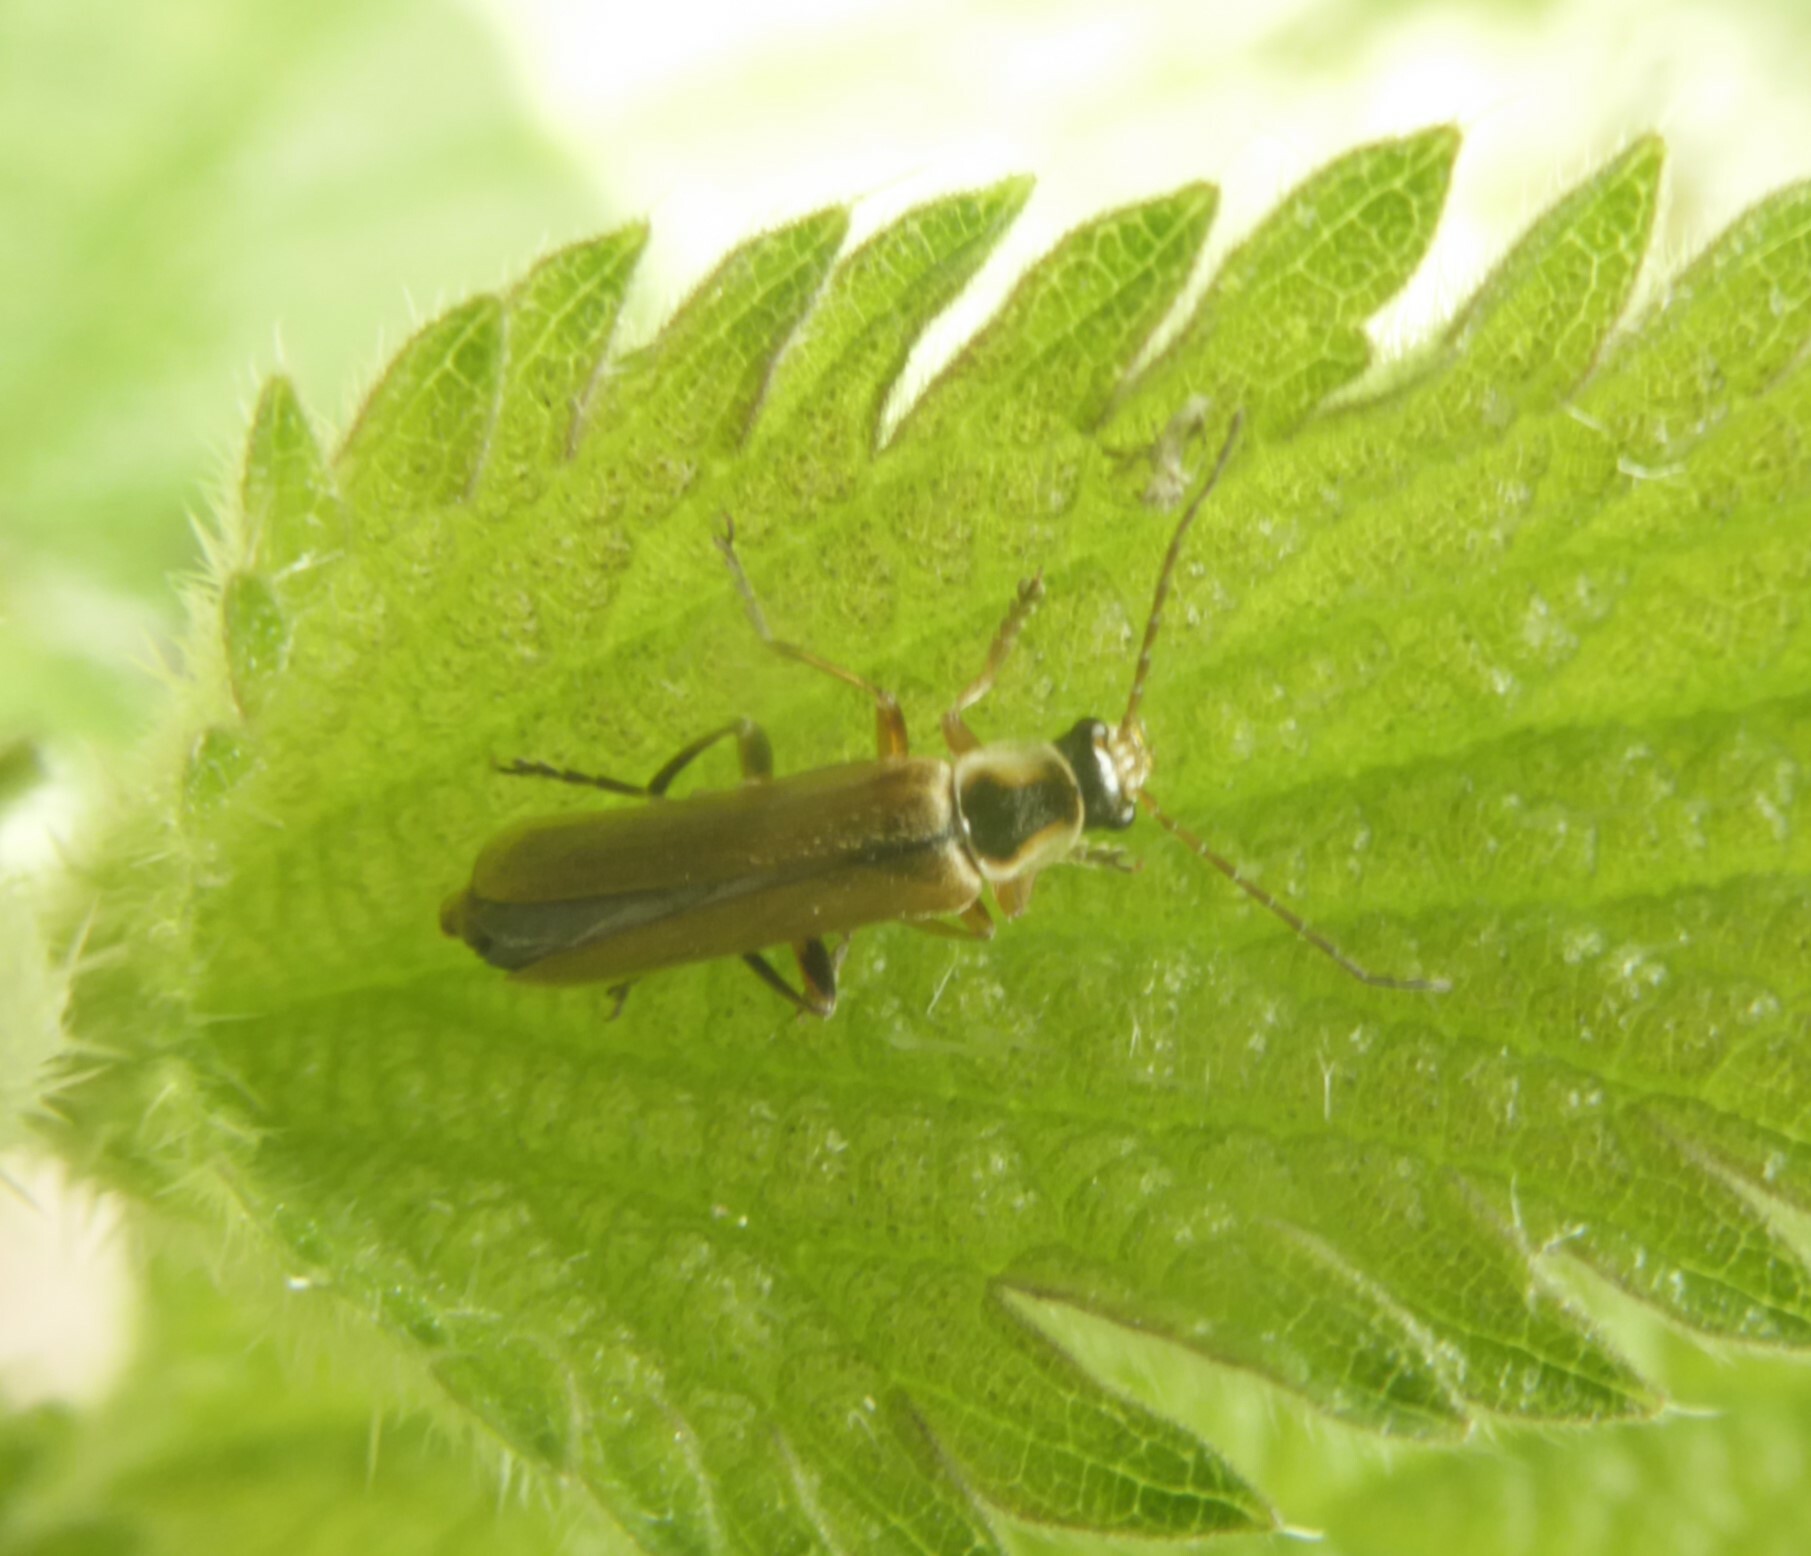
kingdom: Animalia
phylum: Arthropoda
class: Insecta
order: Coleoptera
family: Cantharidae
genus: Cantharis
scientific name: Cantharis decipiens
